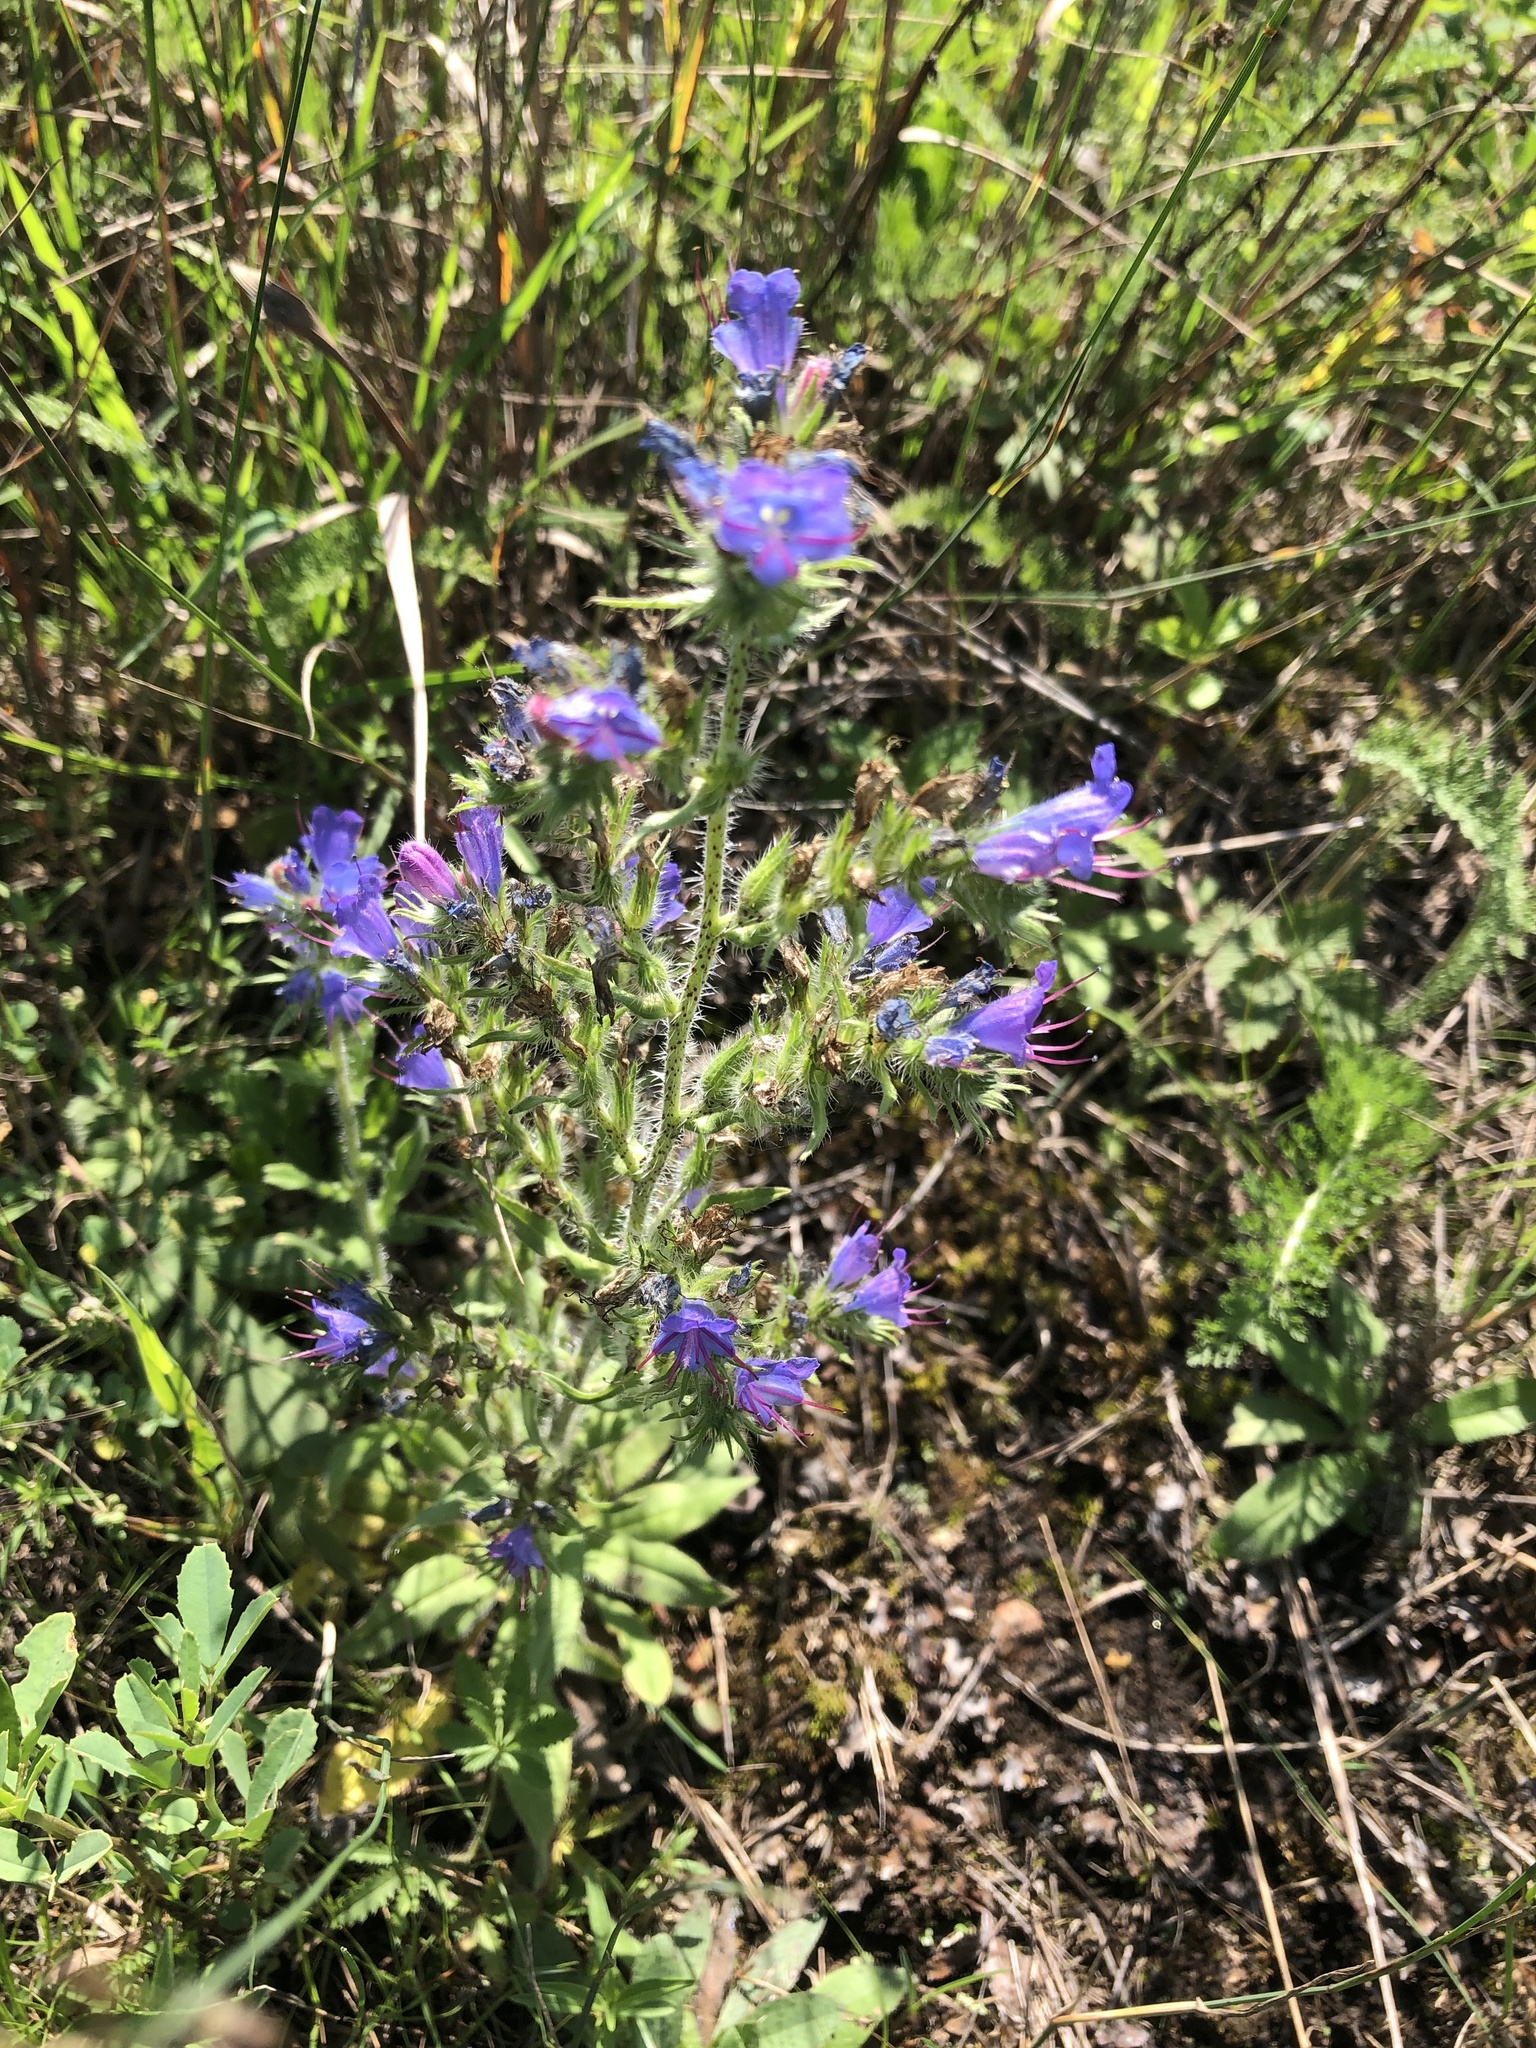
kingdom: Plantae
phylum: Tracheophyta
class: Magnoliopsida
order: Boraginales
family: Boraginaceae
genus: Echium
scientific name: Echium vulgare
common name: Common viper's bugloss
